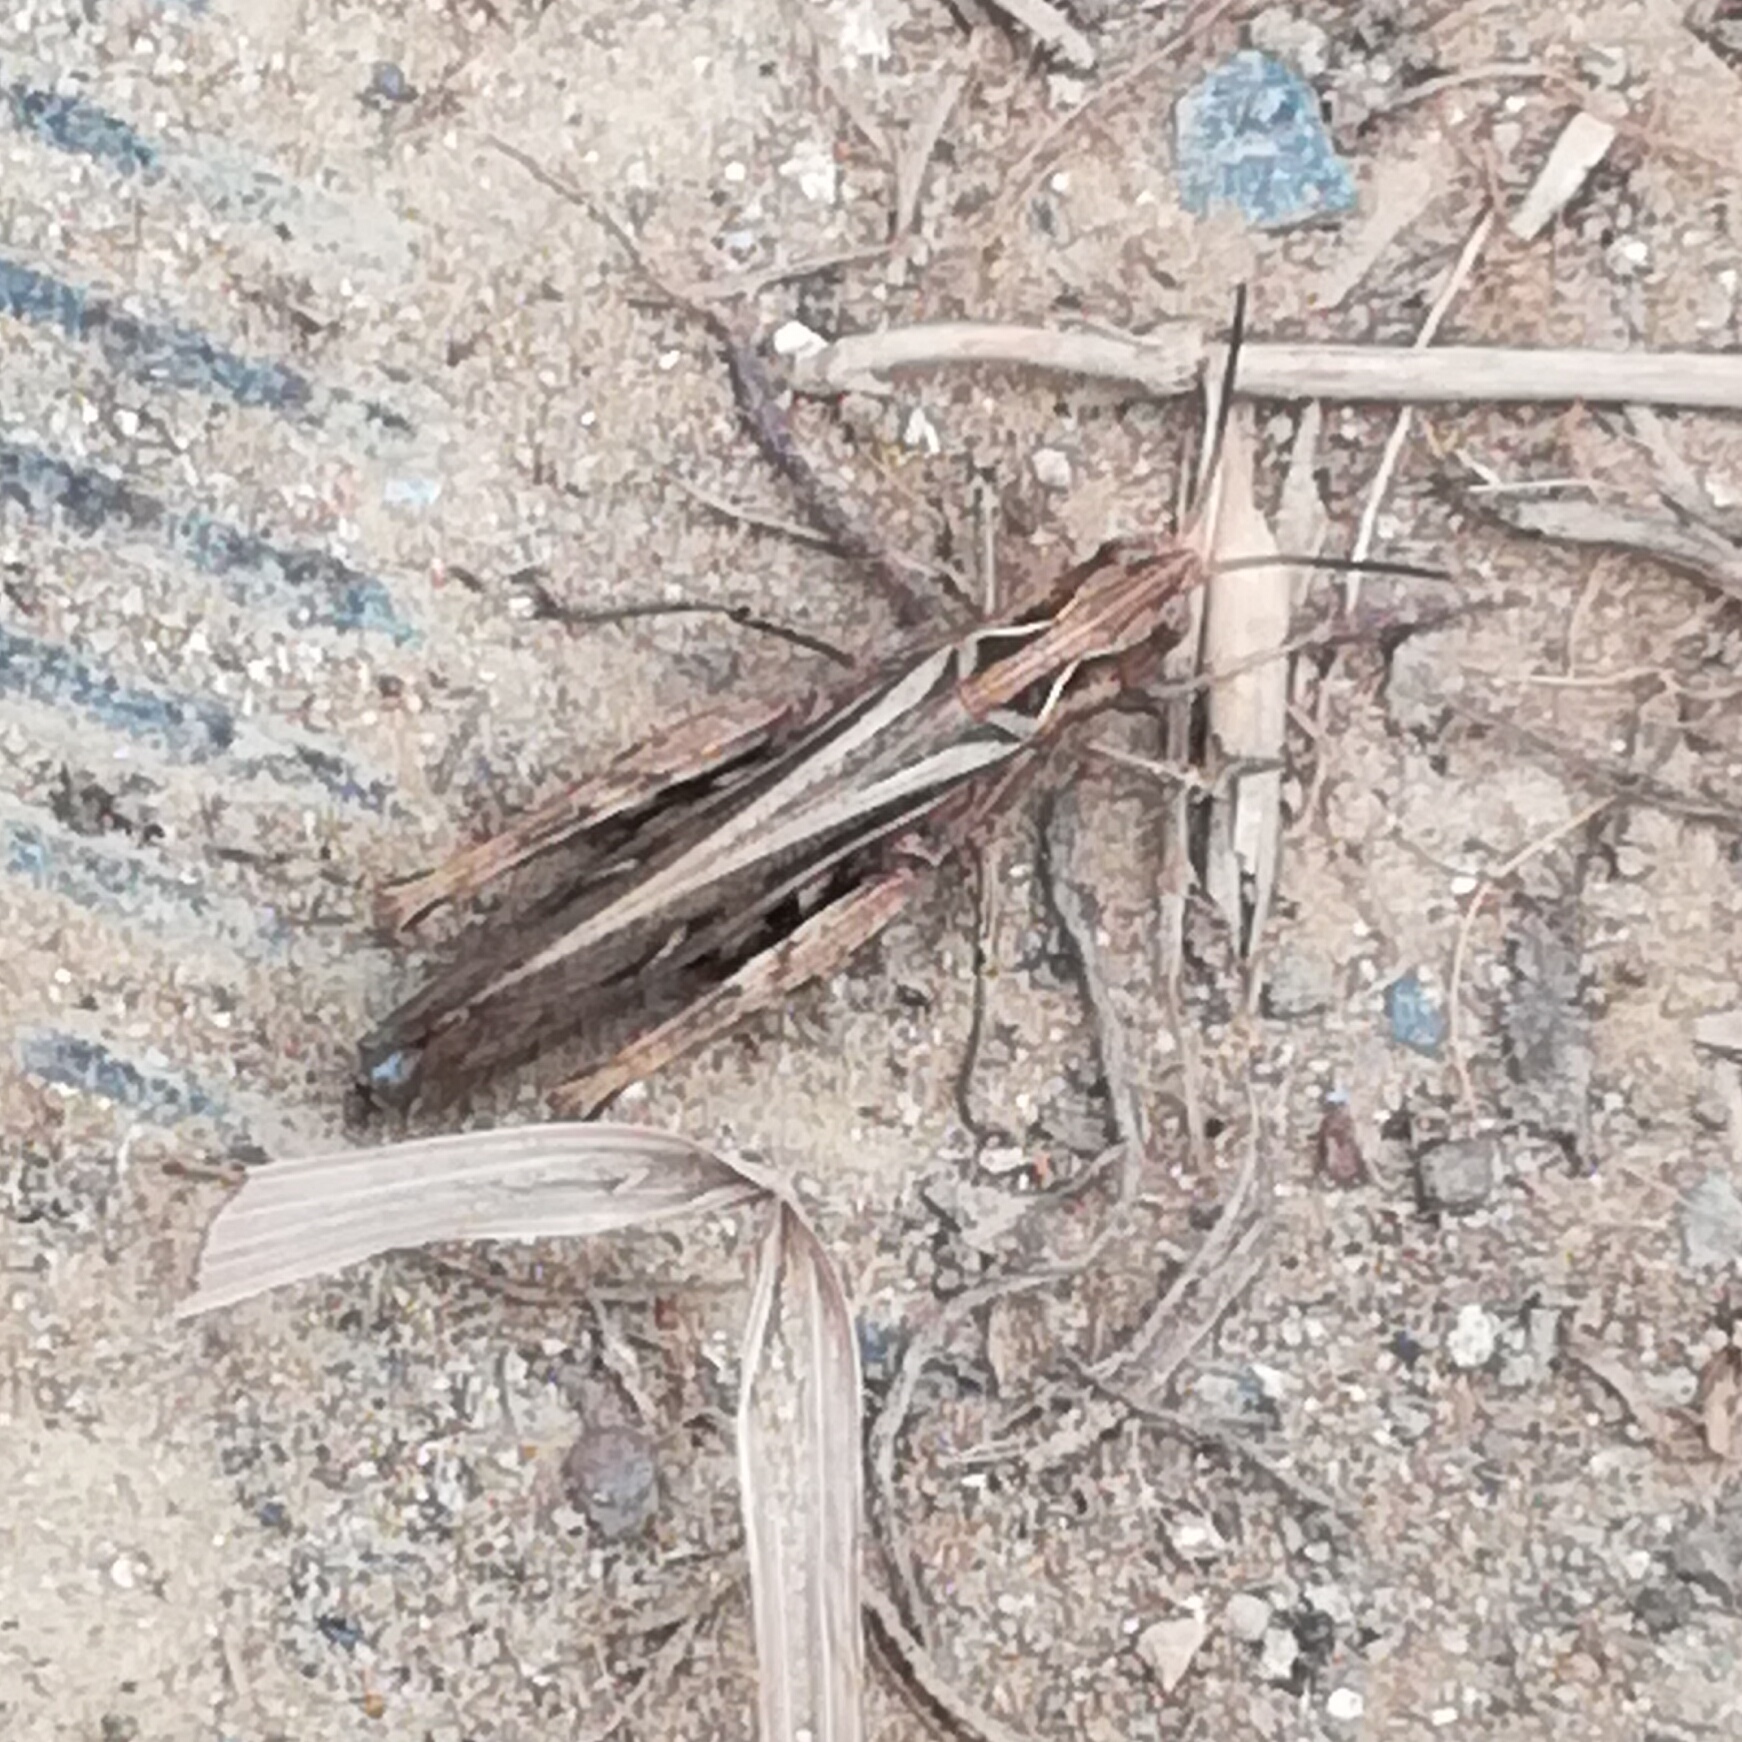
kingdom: Animalia
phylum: Arthropoda
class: Insecta
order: Orthoptera
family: Acrididae
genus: Glyptobothrus
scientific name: Glyptobothrus
